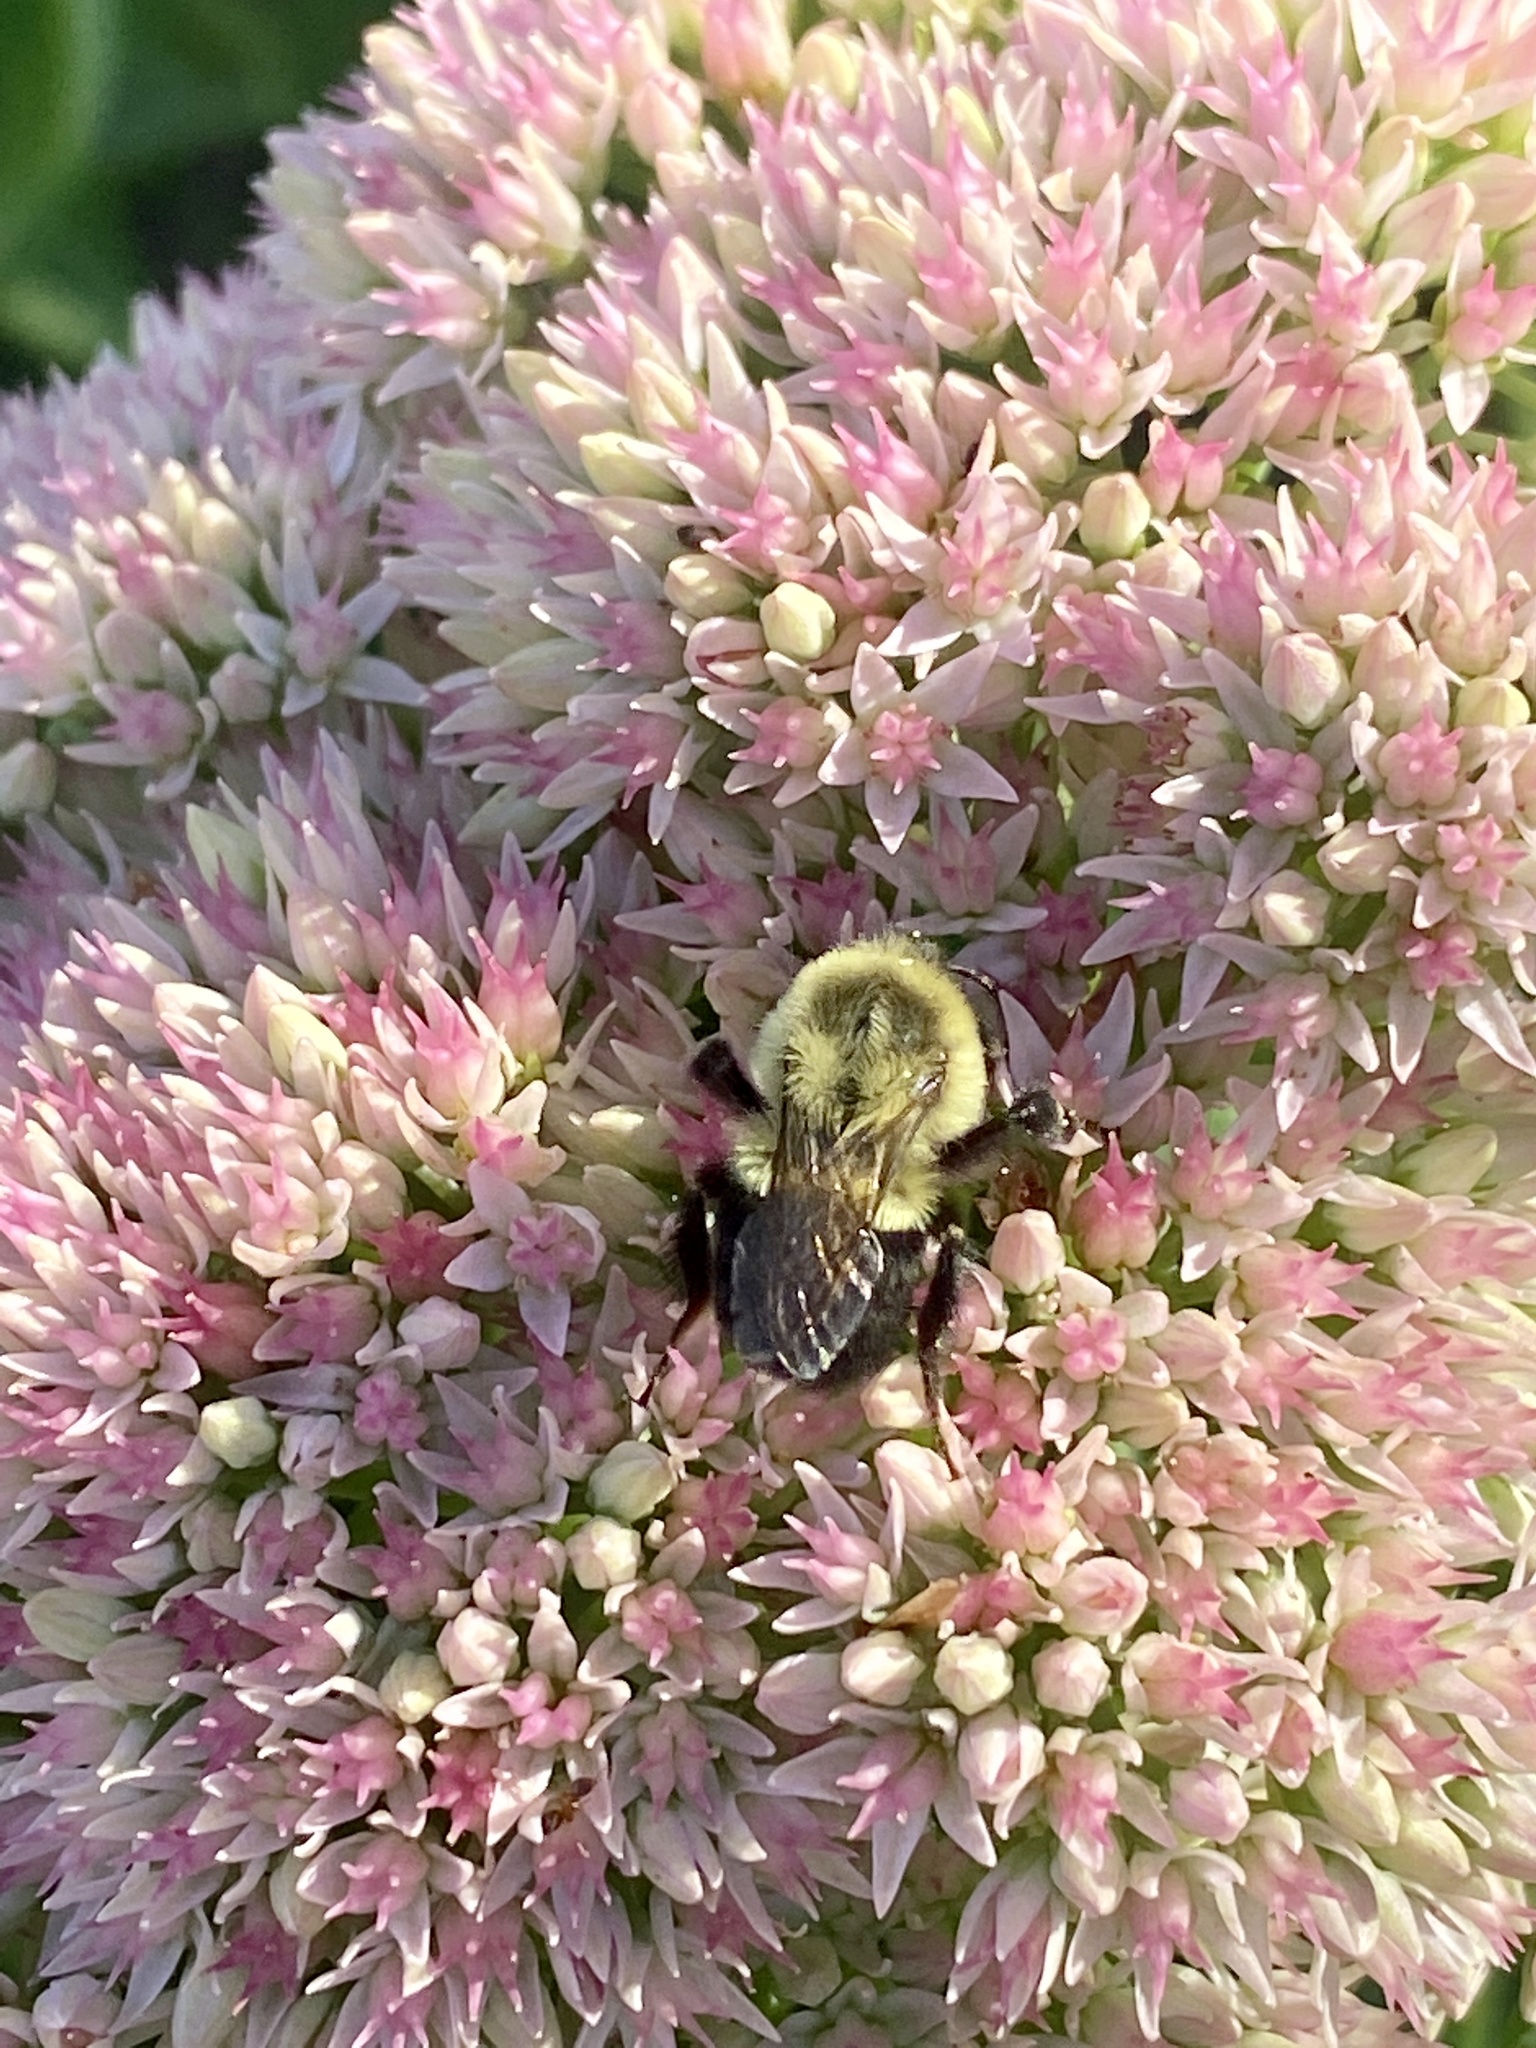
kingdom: Animalia
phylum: Arthropoda
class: Insecta
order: Hymenoptera
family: Apidae
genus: Bombus
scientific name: Bombus impatiens
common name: Common eastern bumble bee
